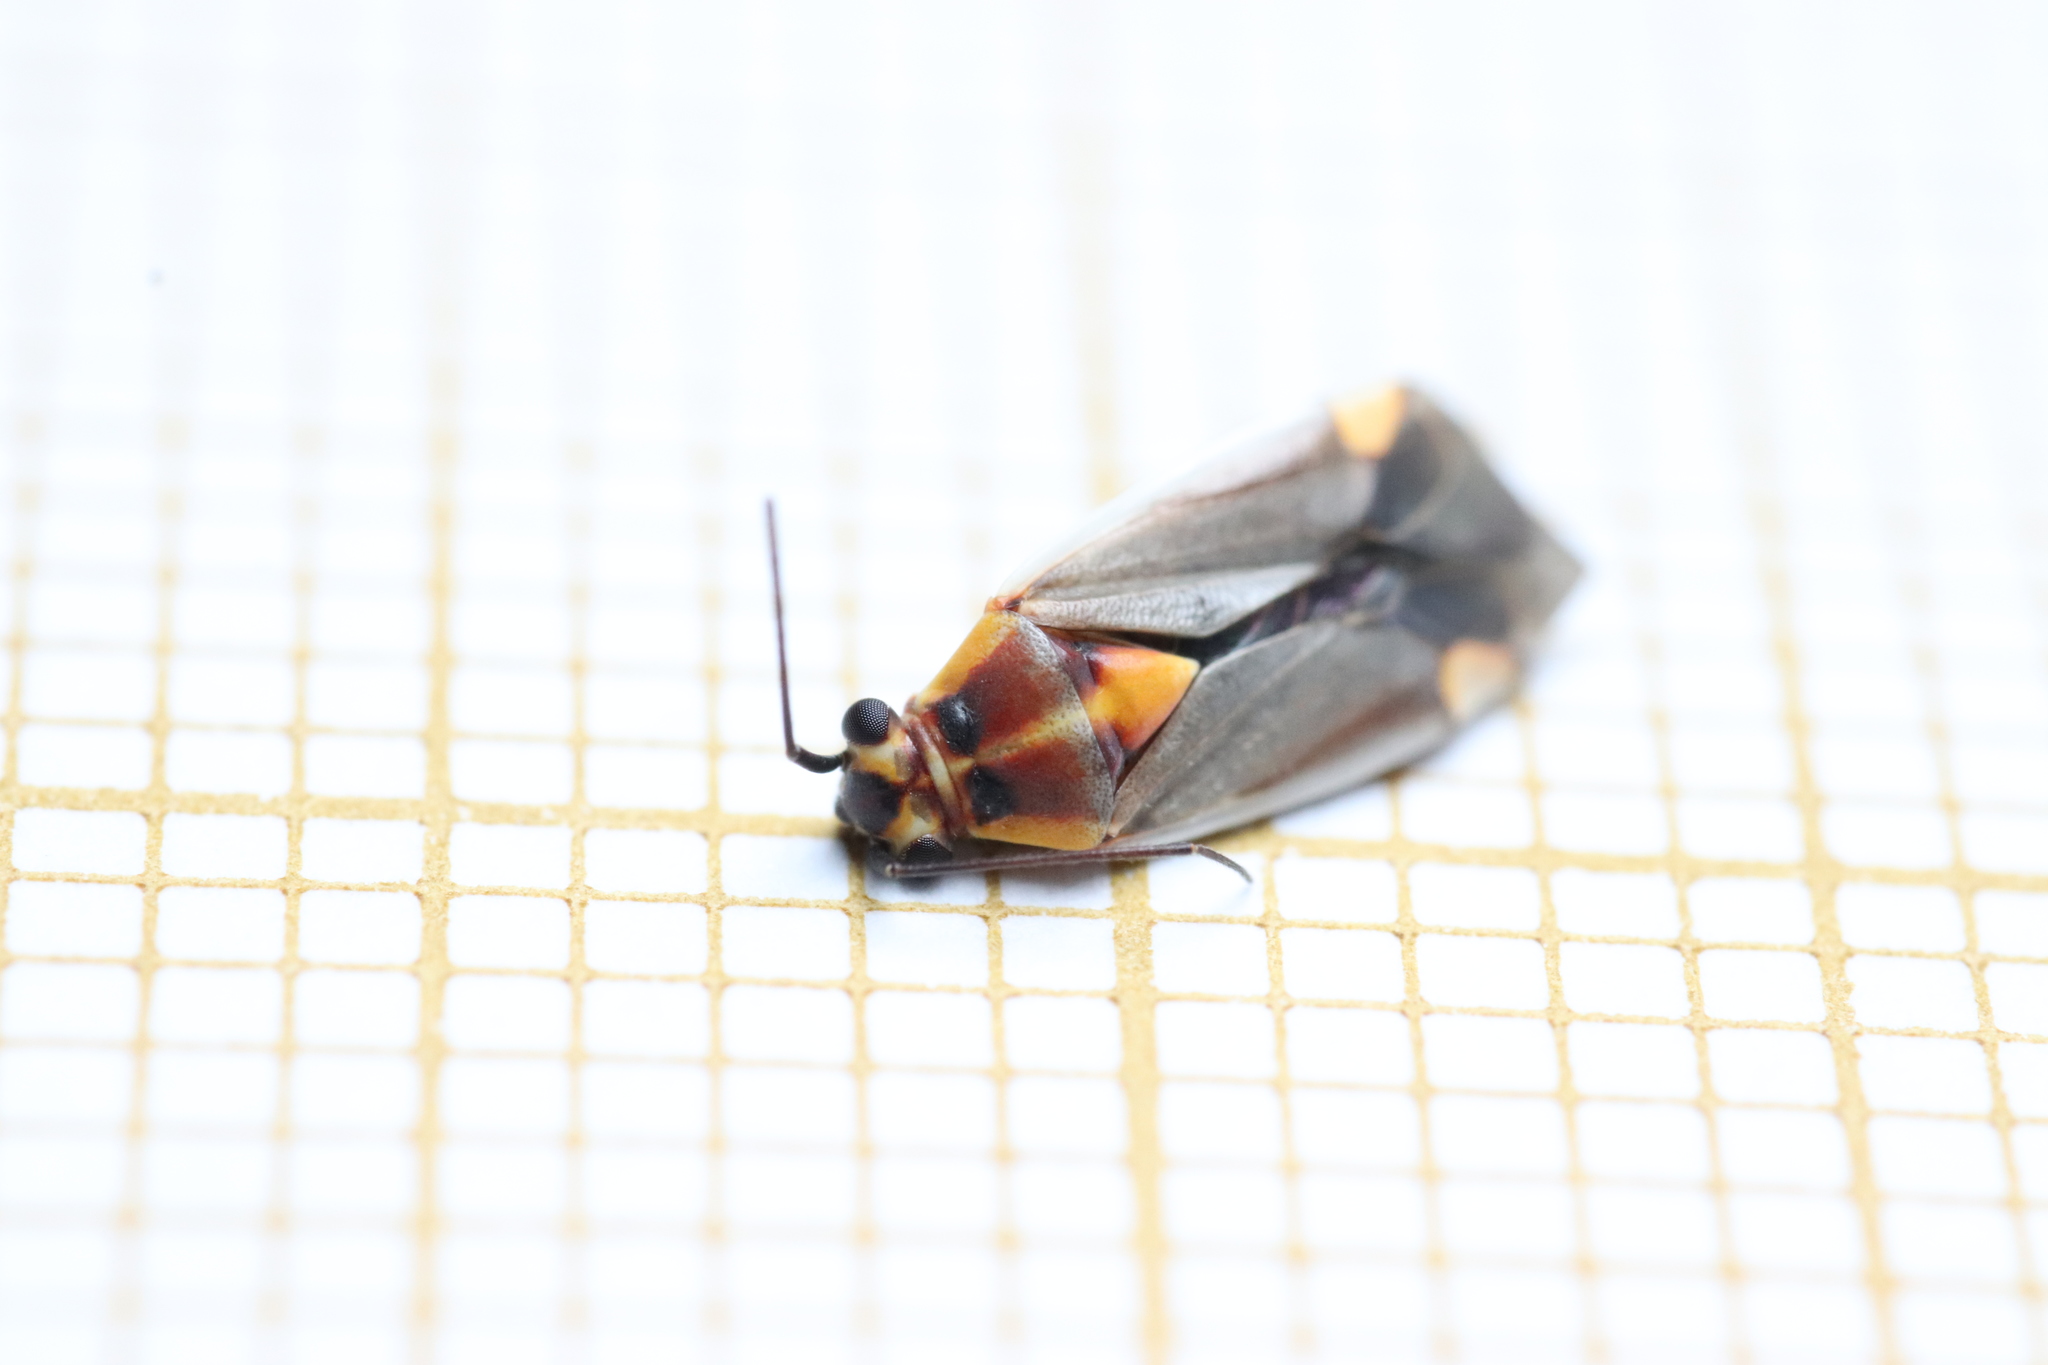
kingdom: Animalia
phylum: Arthropoda
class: Insecta
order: Hemiptera
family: Miridae
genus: Capsodes
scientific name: Capsodes flavomarginatus
